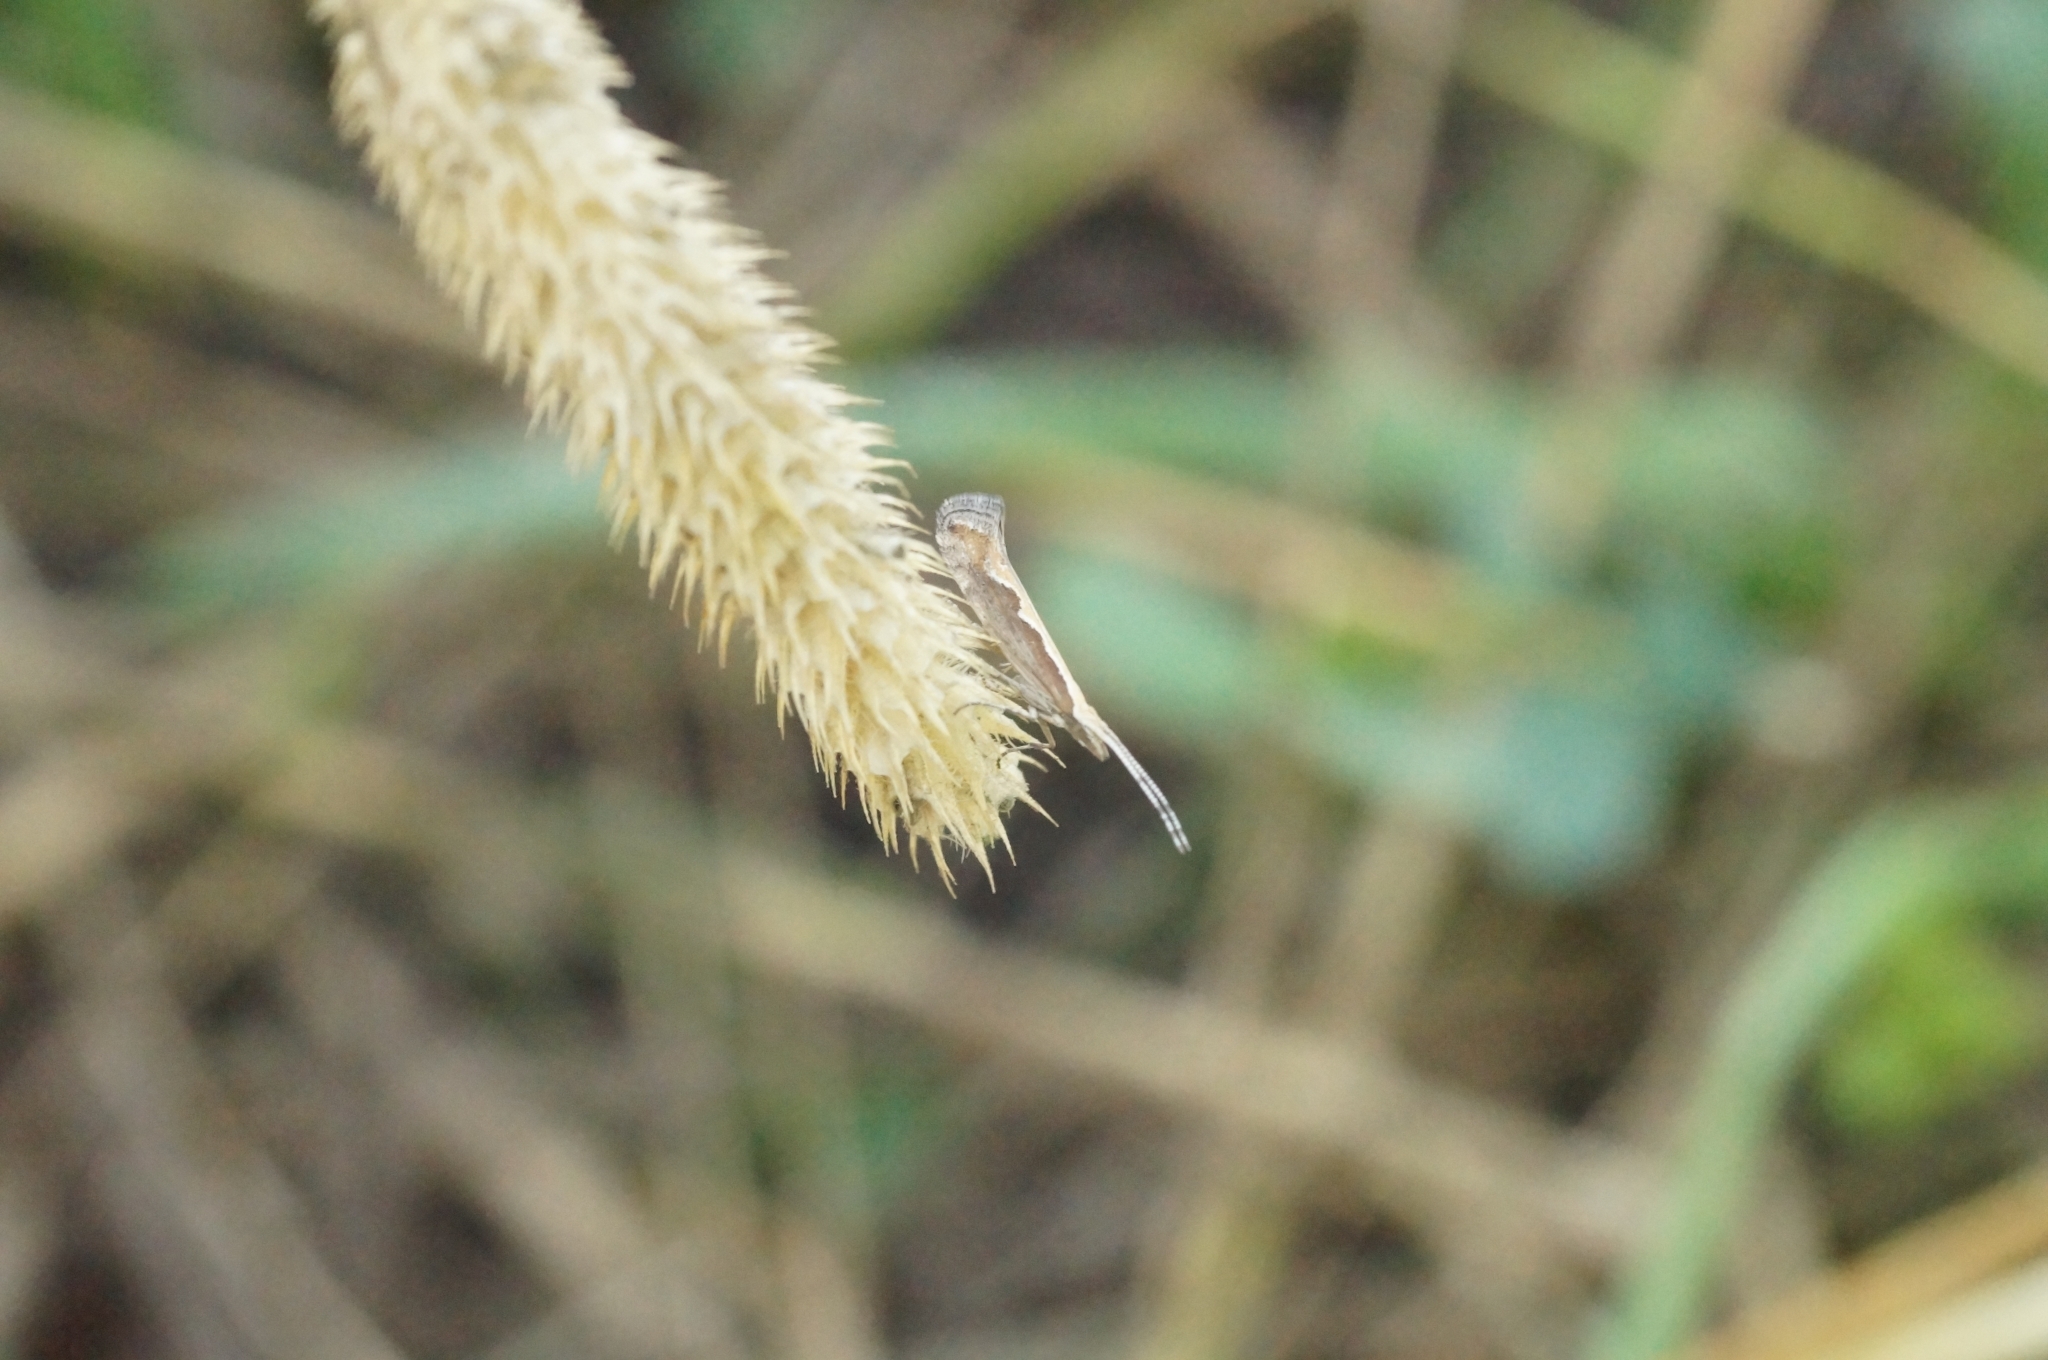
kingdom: Animalia
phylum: Arthropoda
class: Insecta
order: Lepidoptera
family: Plutellidae
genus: Plutella
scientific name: Plutella xylostella
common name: Diamond-back moth
